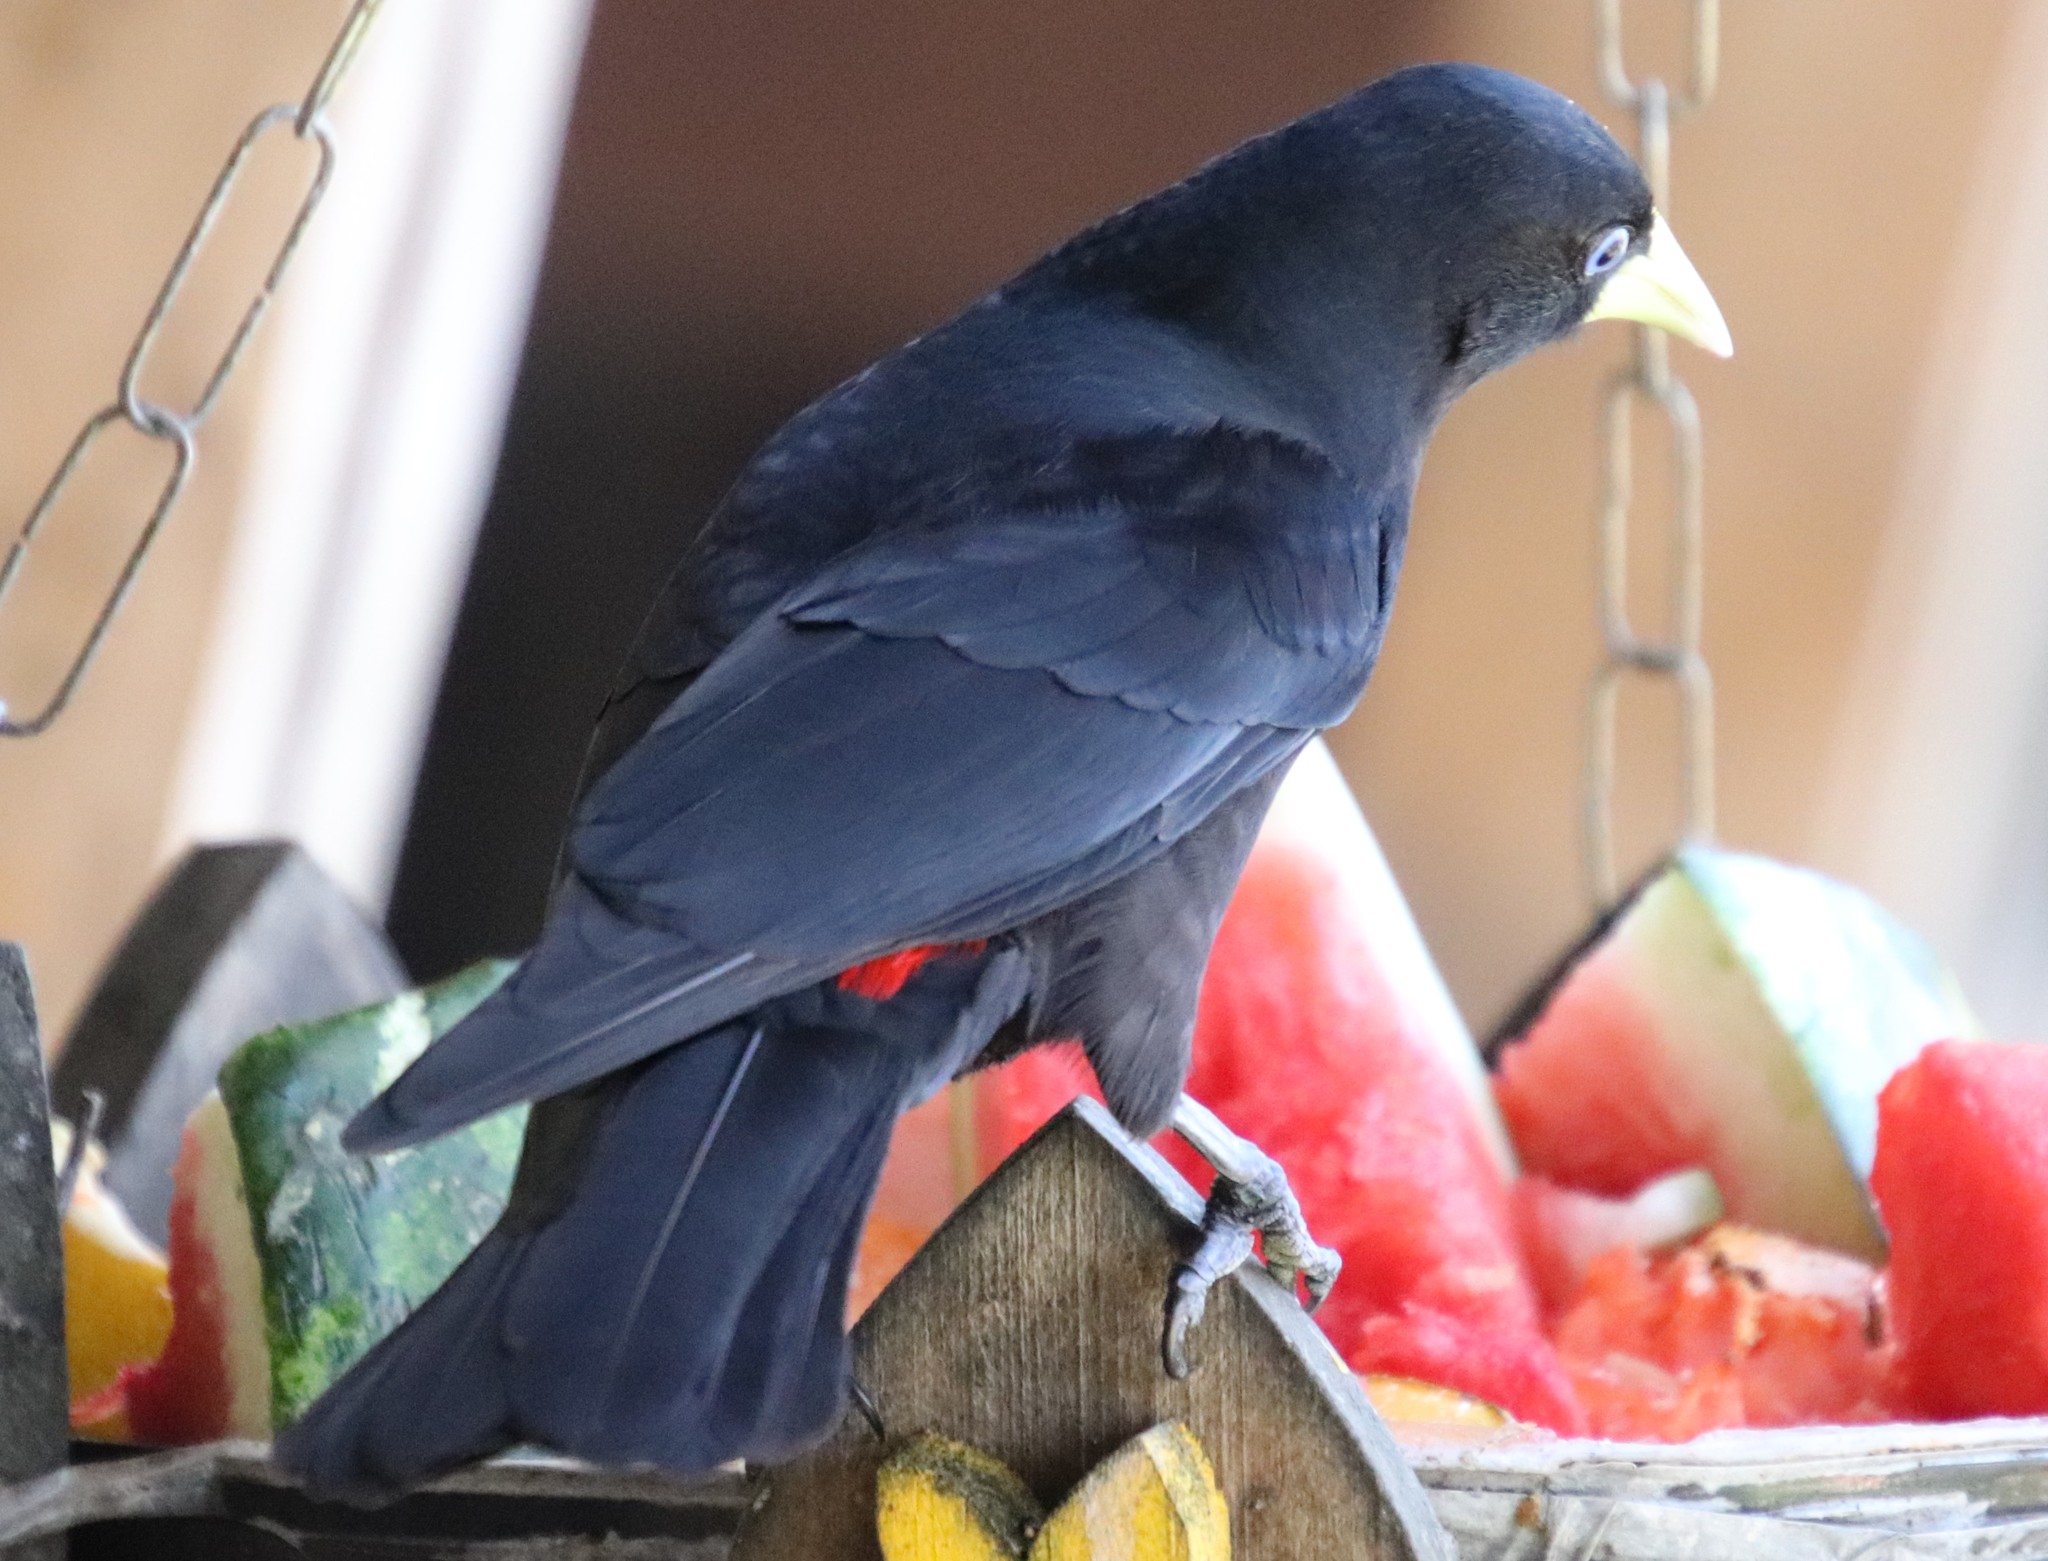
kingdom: Animalia
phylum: Chordata
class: Aves
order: Passeriformes
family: Icteridae
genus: Cacicus
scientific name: Cacicus haemorrhous
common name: Red-rumped cacique
